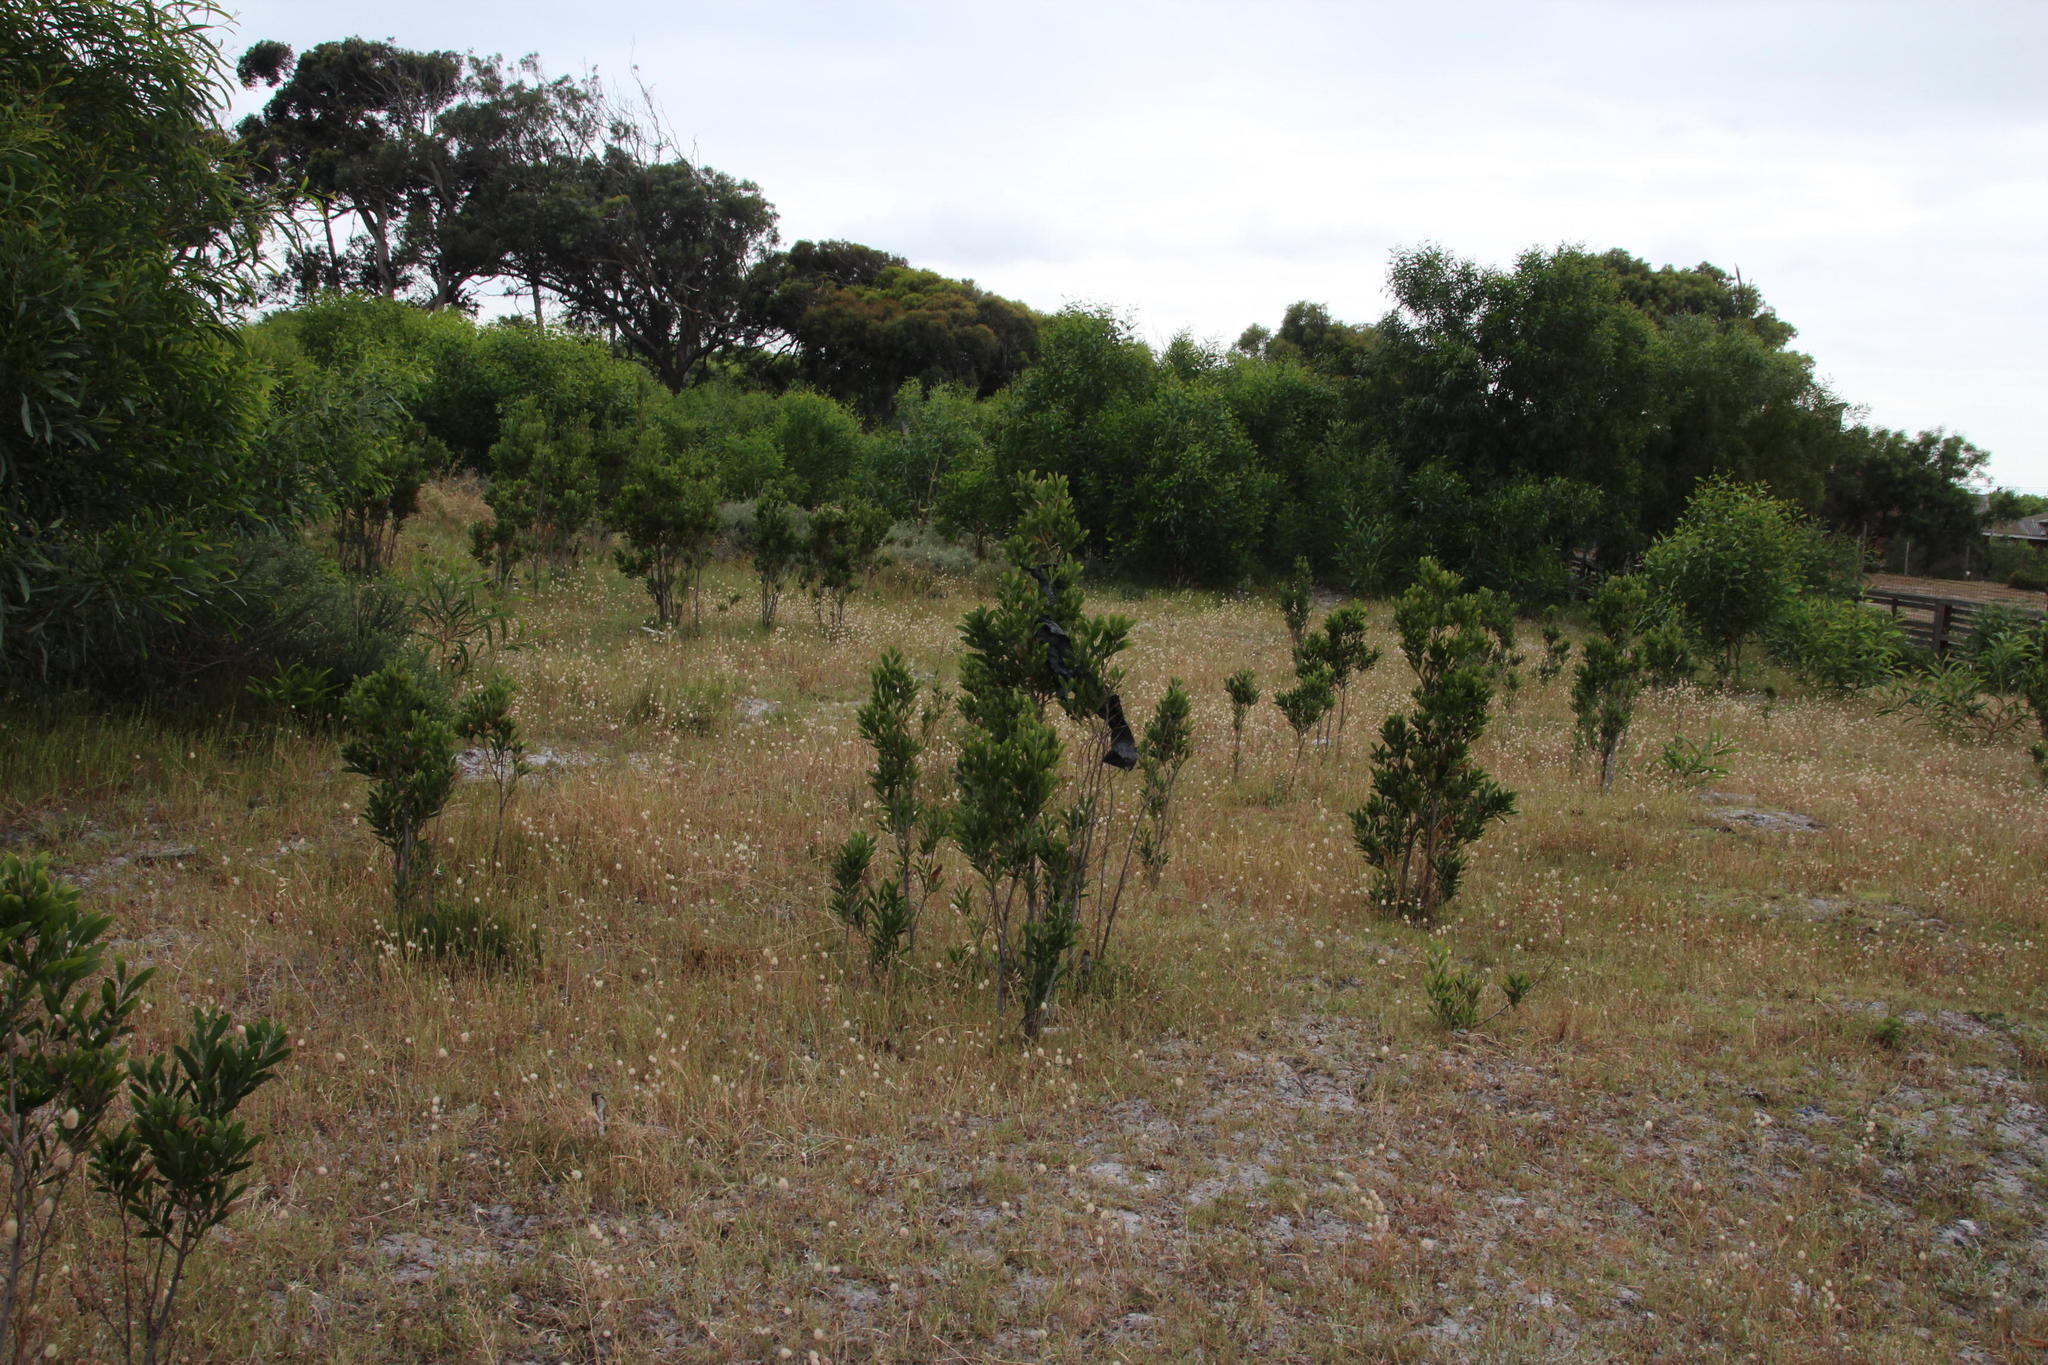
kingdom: Plantae
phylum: Tracheophyta
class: Magnoliopsida
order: Fabales
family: Fabaceae
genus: Acacia
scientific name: Acacia melanoxylon
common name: Blackwood
